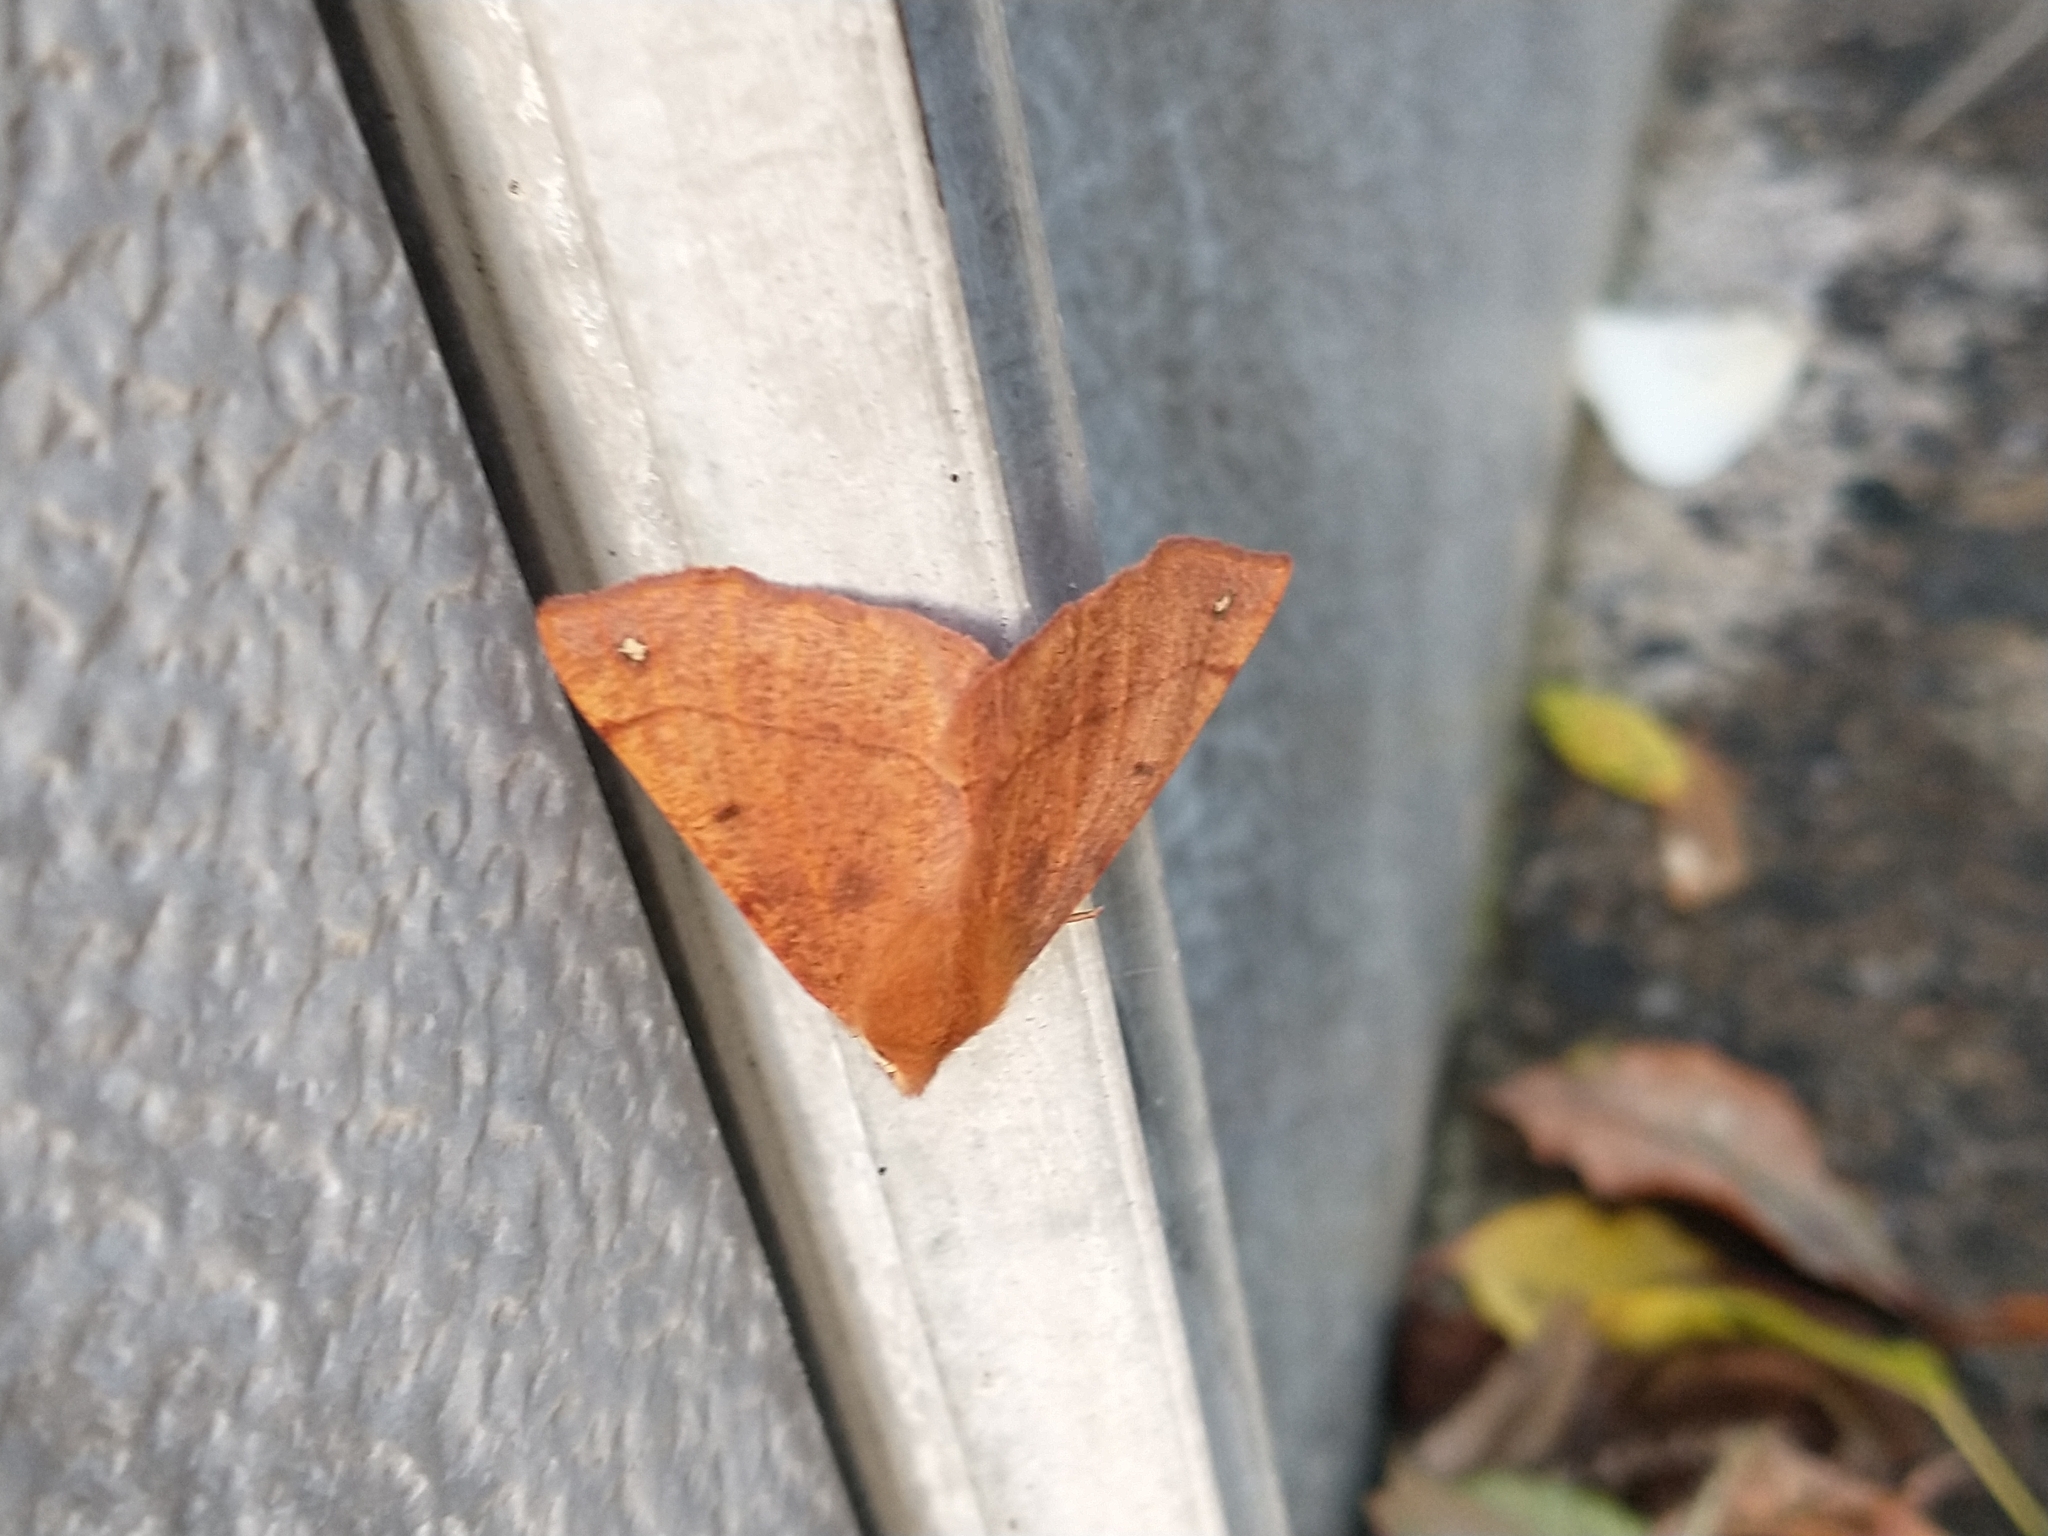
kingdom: Animalia
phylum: Arthropoda
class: Insecta
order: Lepidoptera
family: Geometridae
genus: Colotois
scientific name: Colotois pennaria
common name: Feathered thorn
